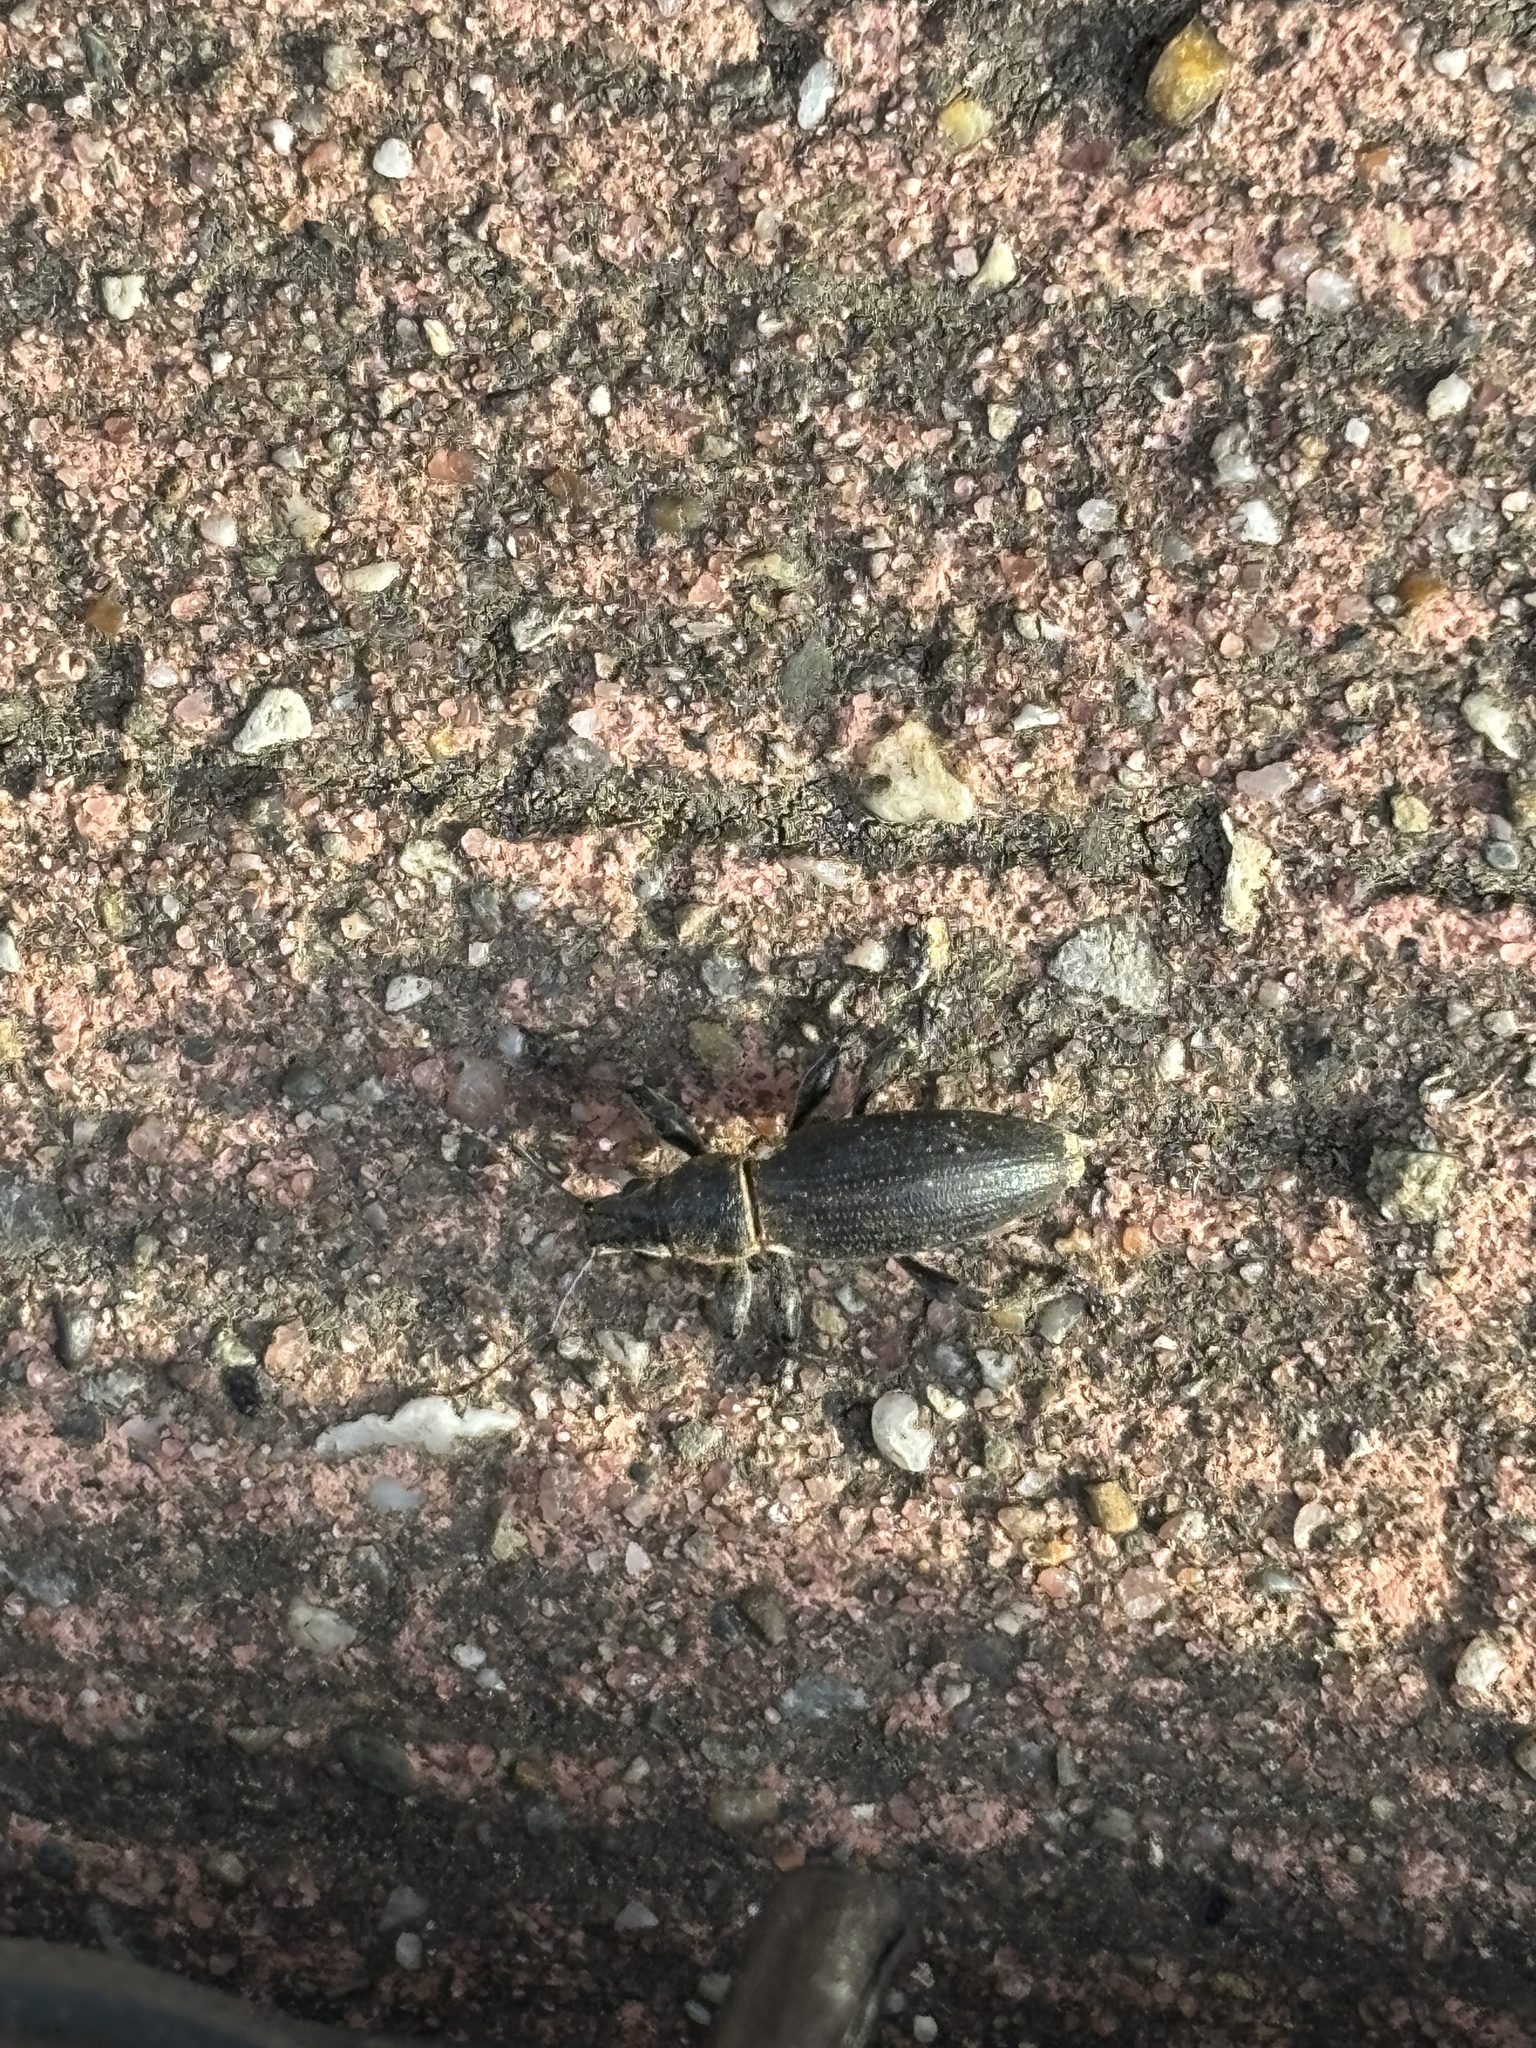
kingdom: Animalia
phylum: Arthropoda
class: Insecta
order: Coleoptera
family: Curculionidae
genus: Brachyderes
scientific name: Brachyderes lusitanicus
